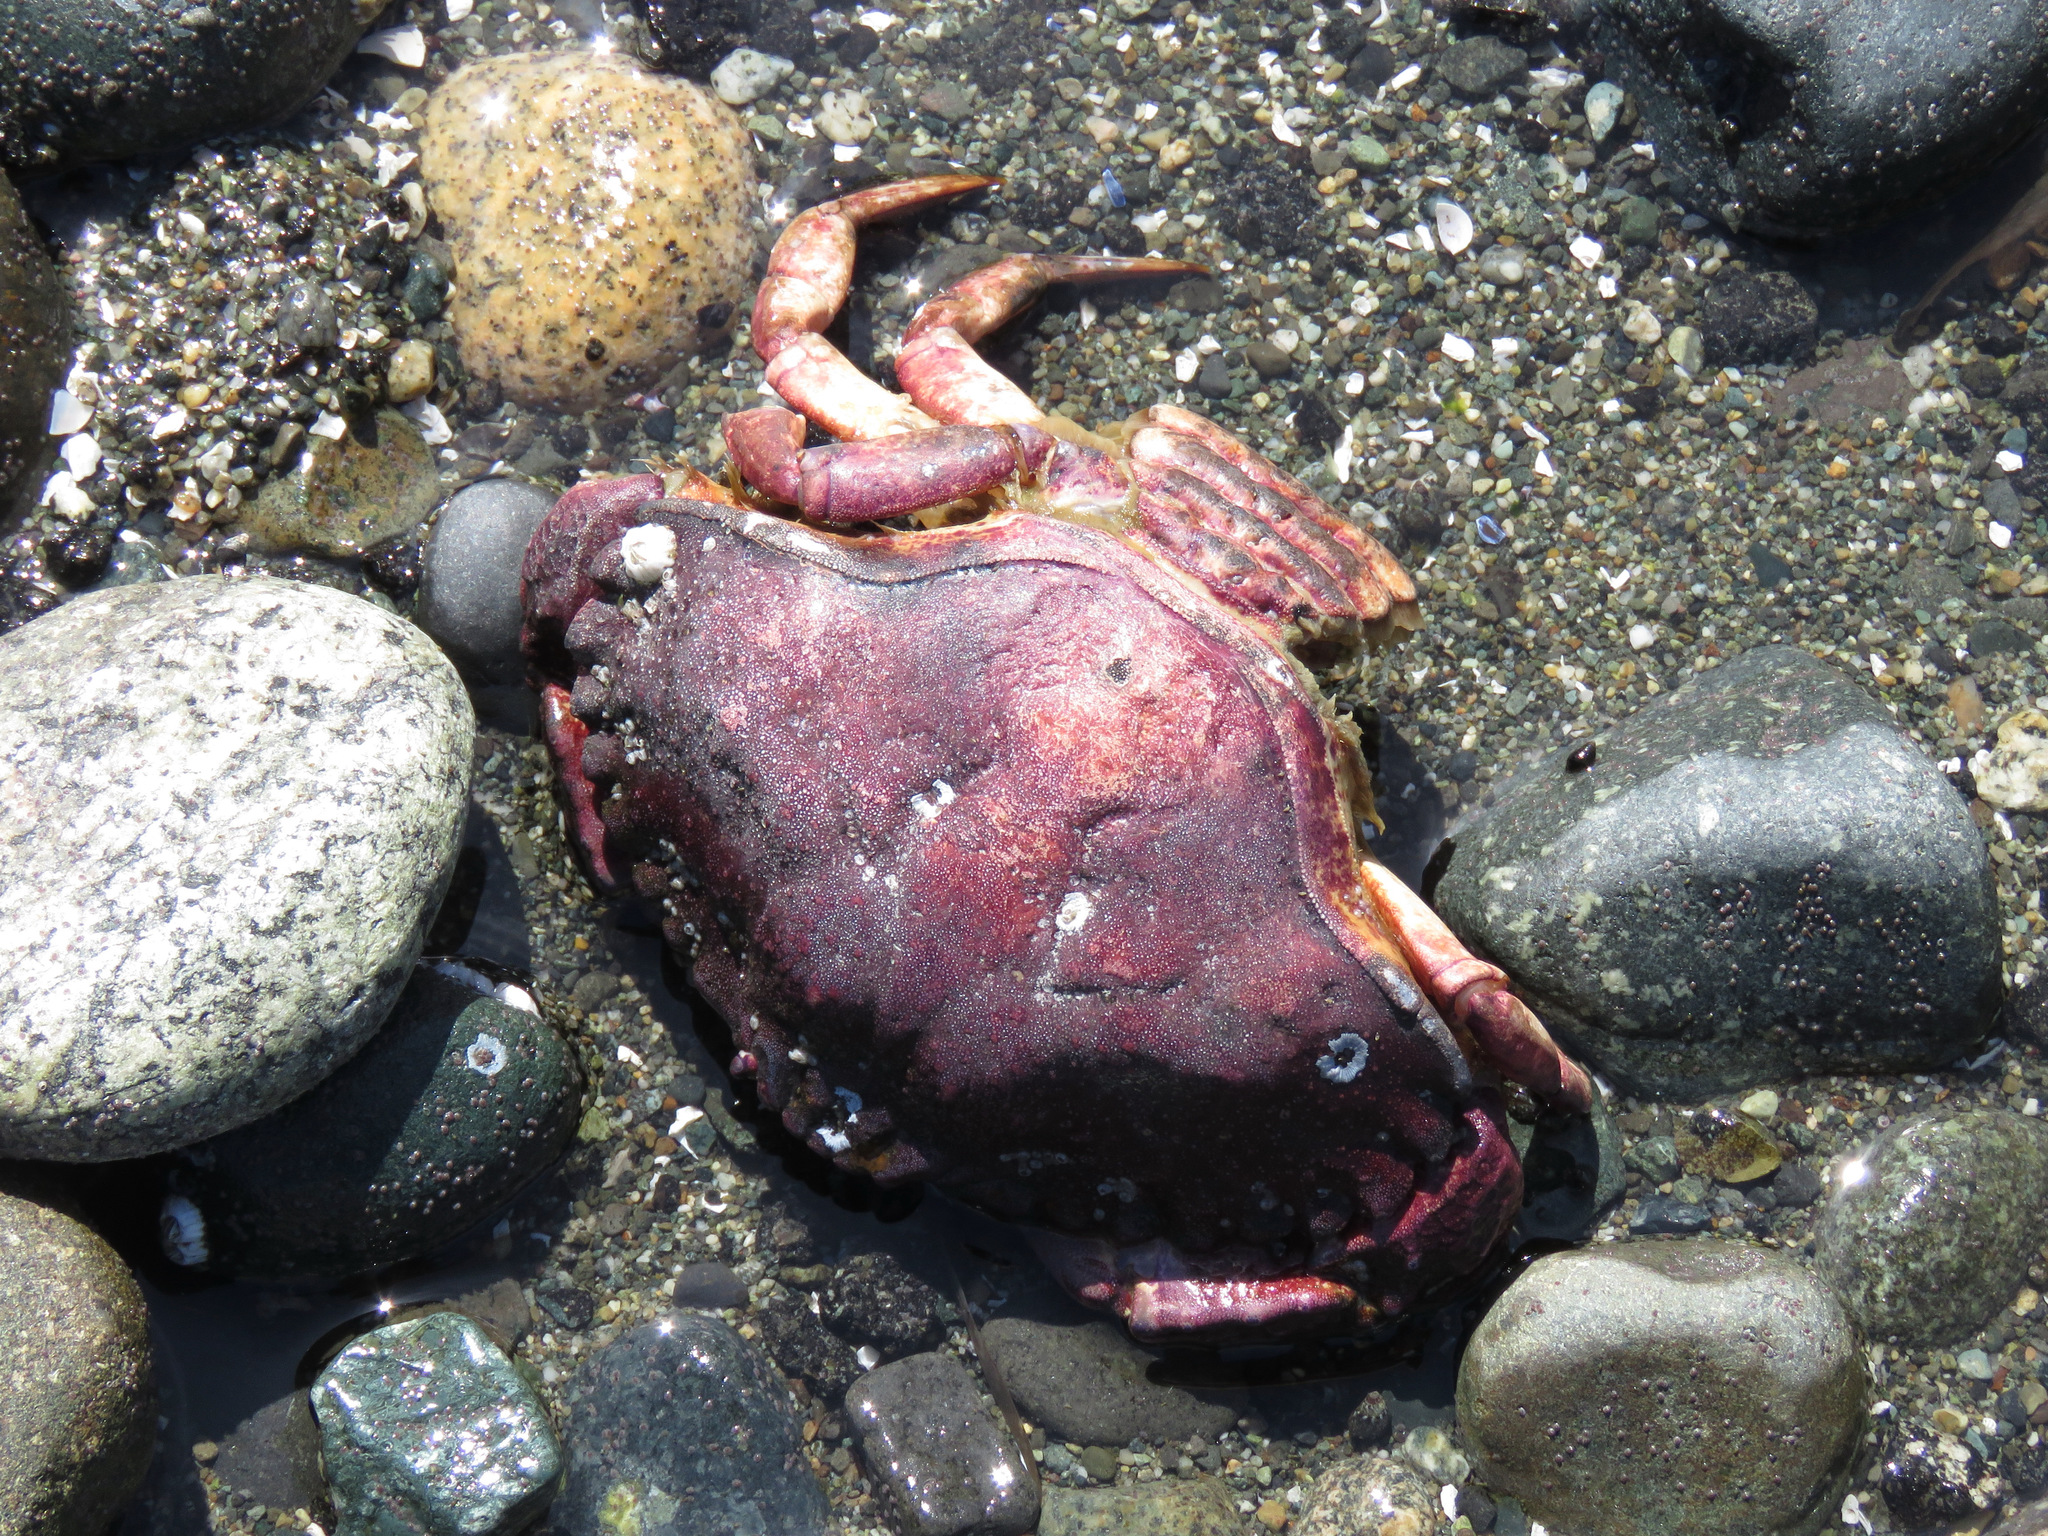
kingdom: Animalia
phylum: Arthropoda
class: Malacostraca
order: Decapoda
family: Cancridae
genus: Cancer
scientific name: Cancer productus
